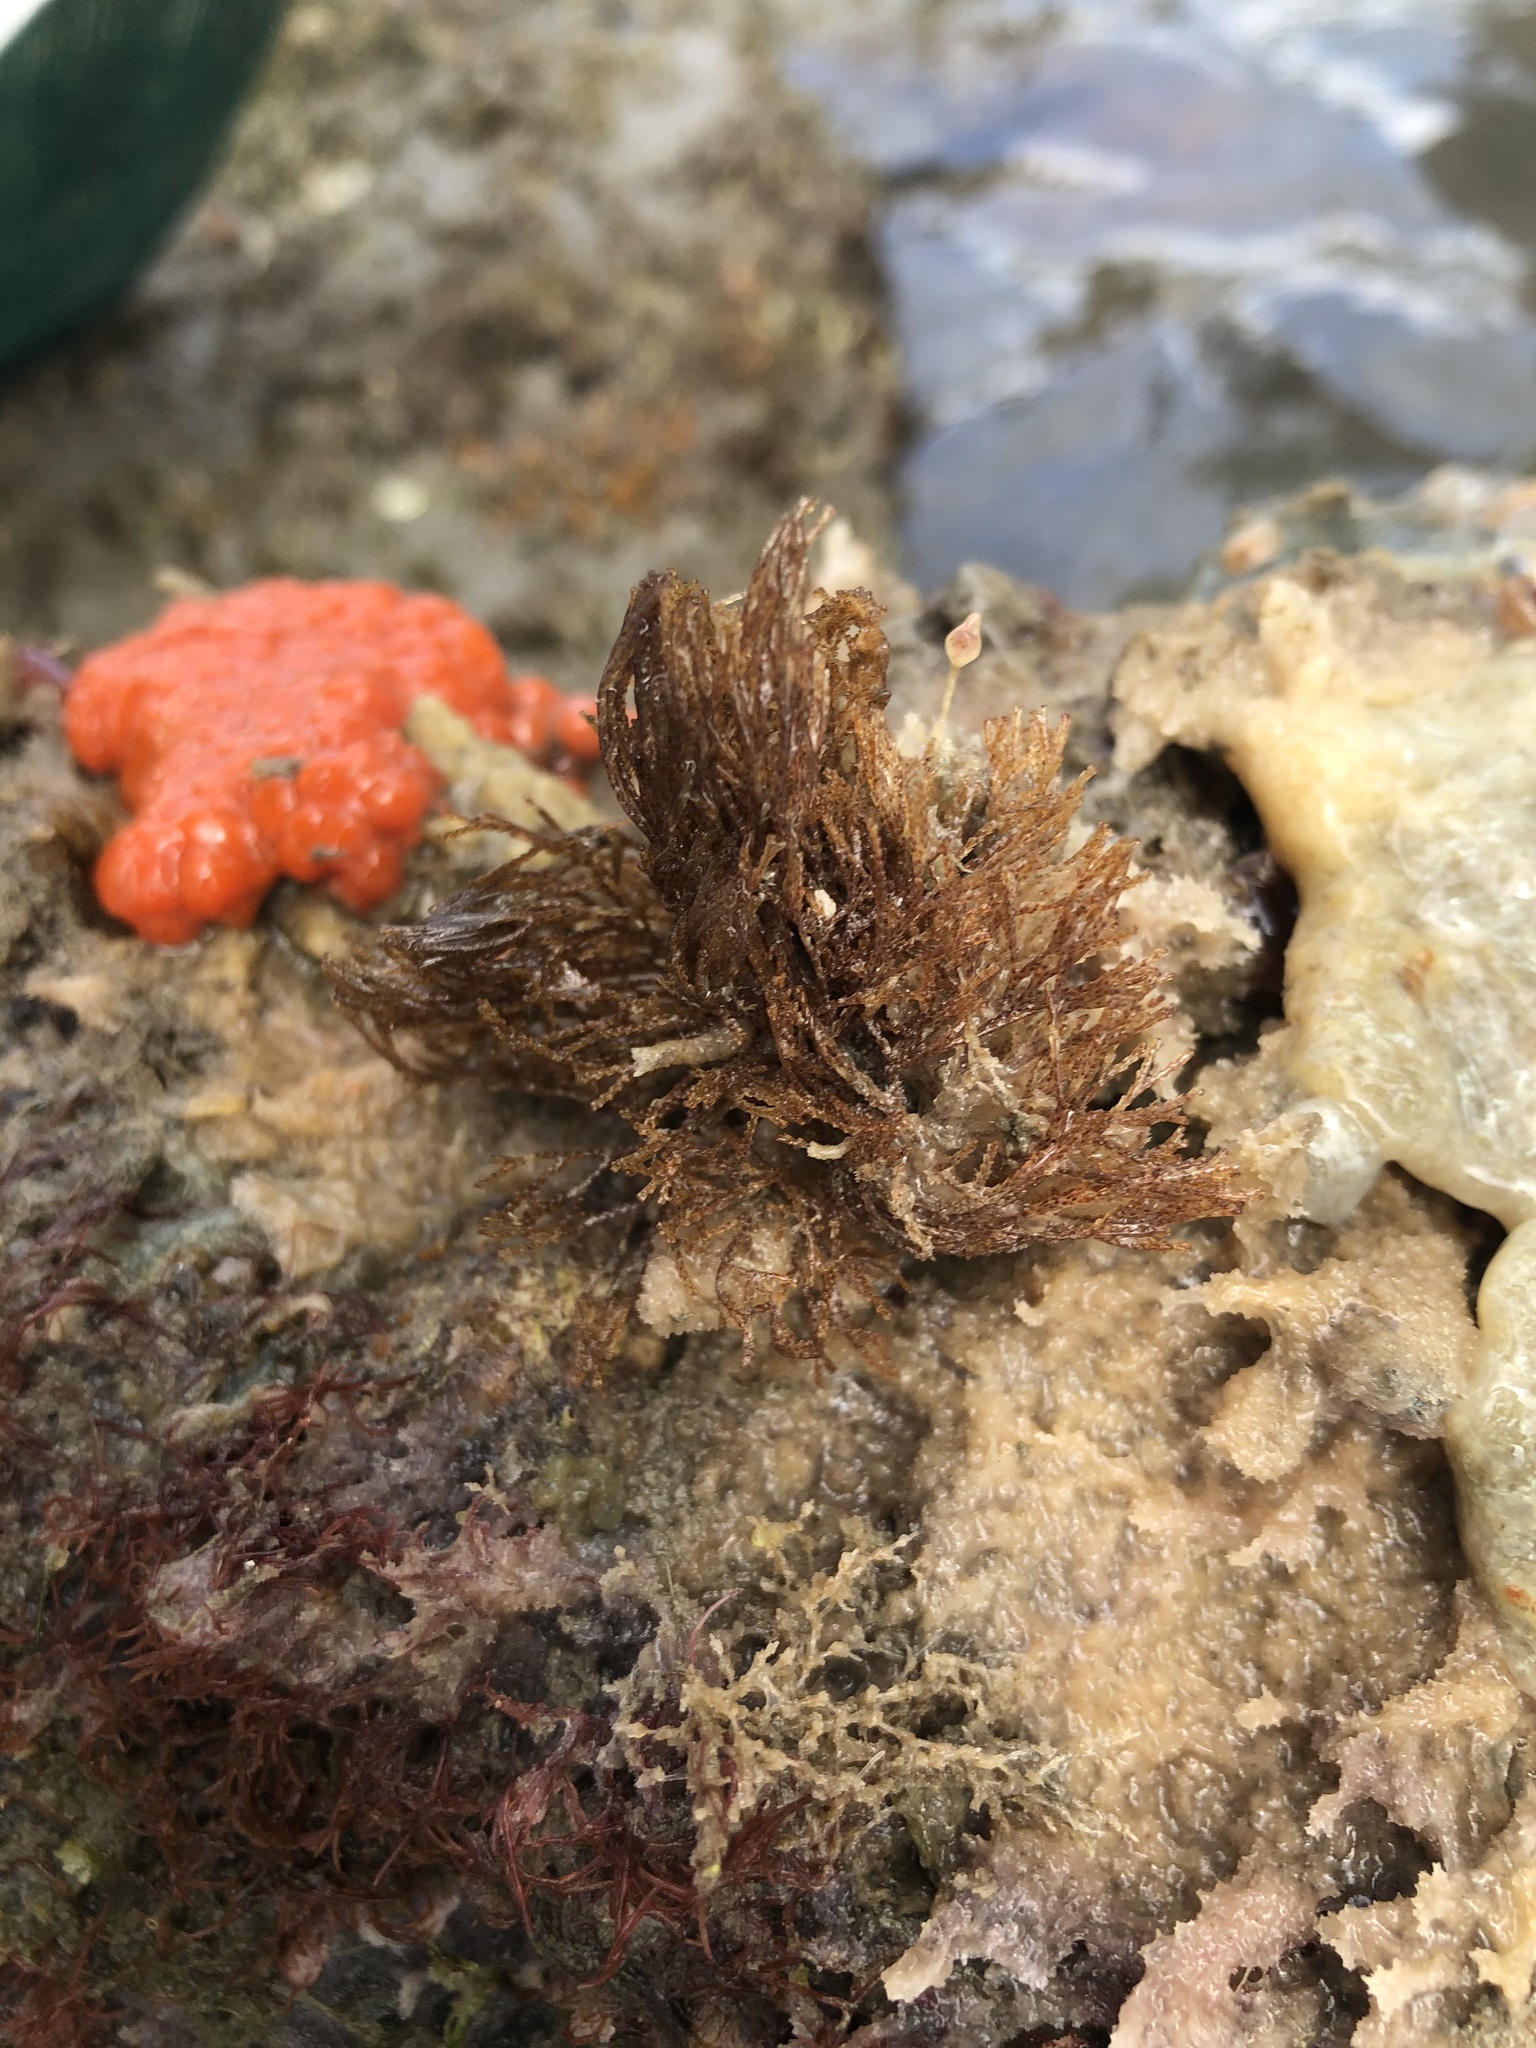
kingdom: Animalia
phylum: Bryozoa
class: Gymnolaemata
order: Cheilostomatida
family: Bugulidae
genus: Bugula
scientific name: Bugula neritina
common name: Brown bryozoan
